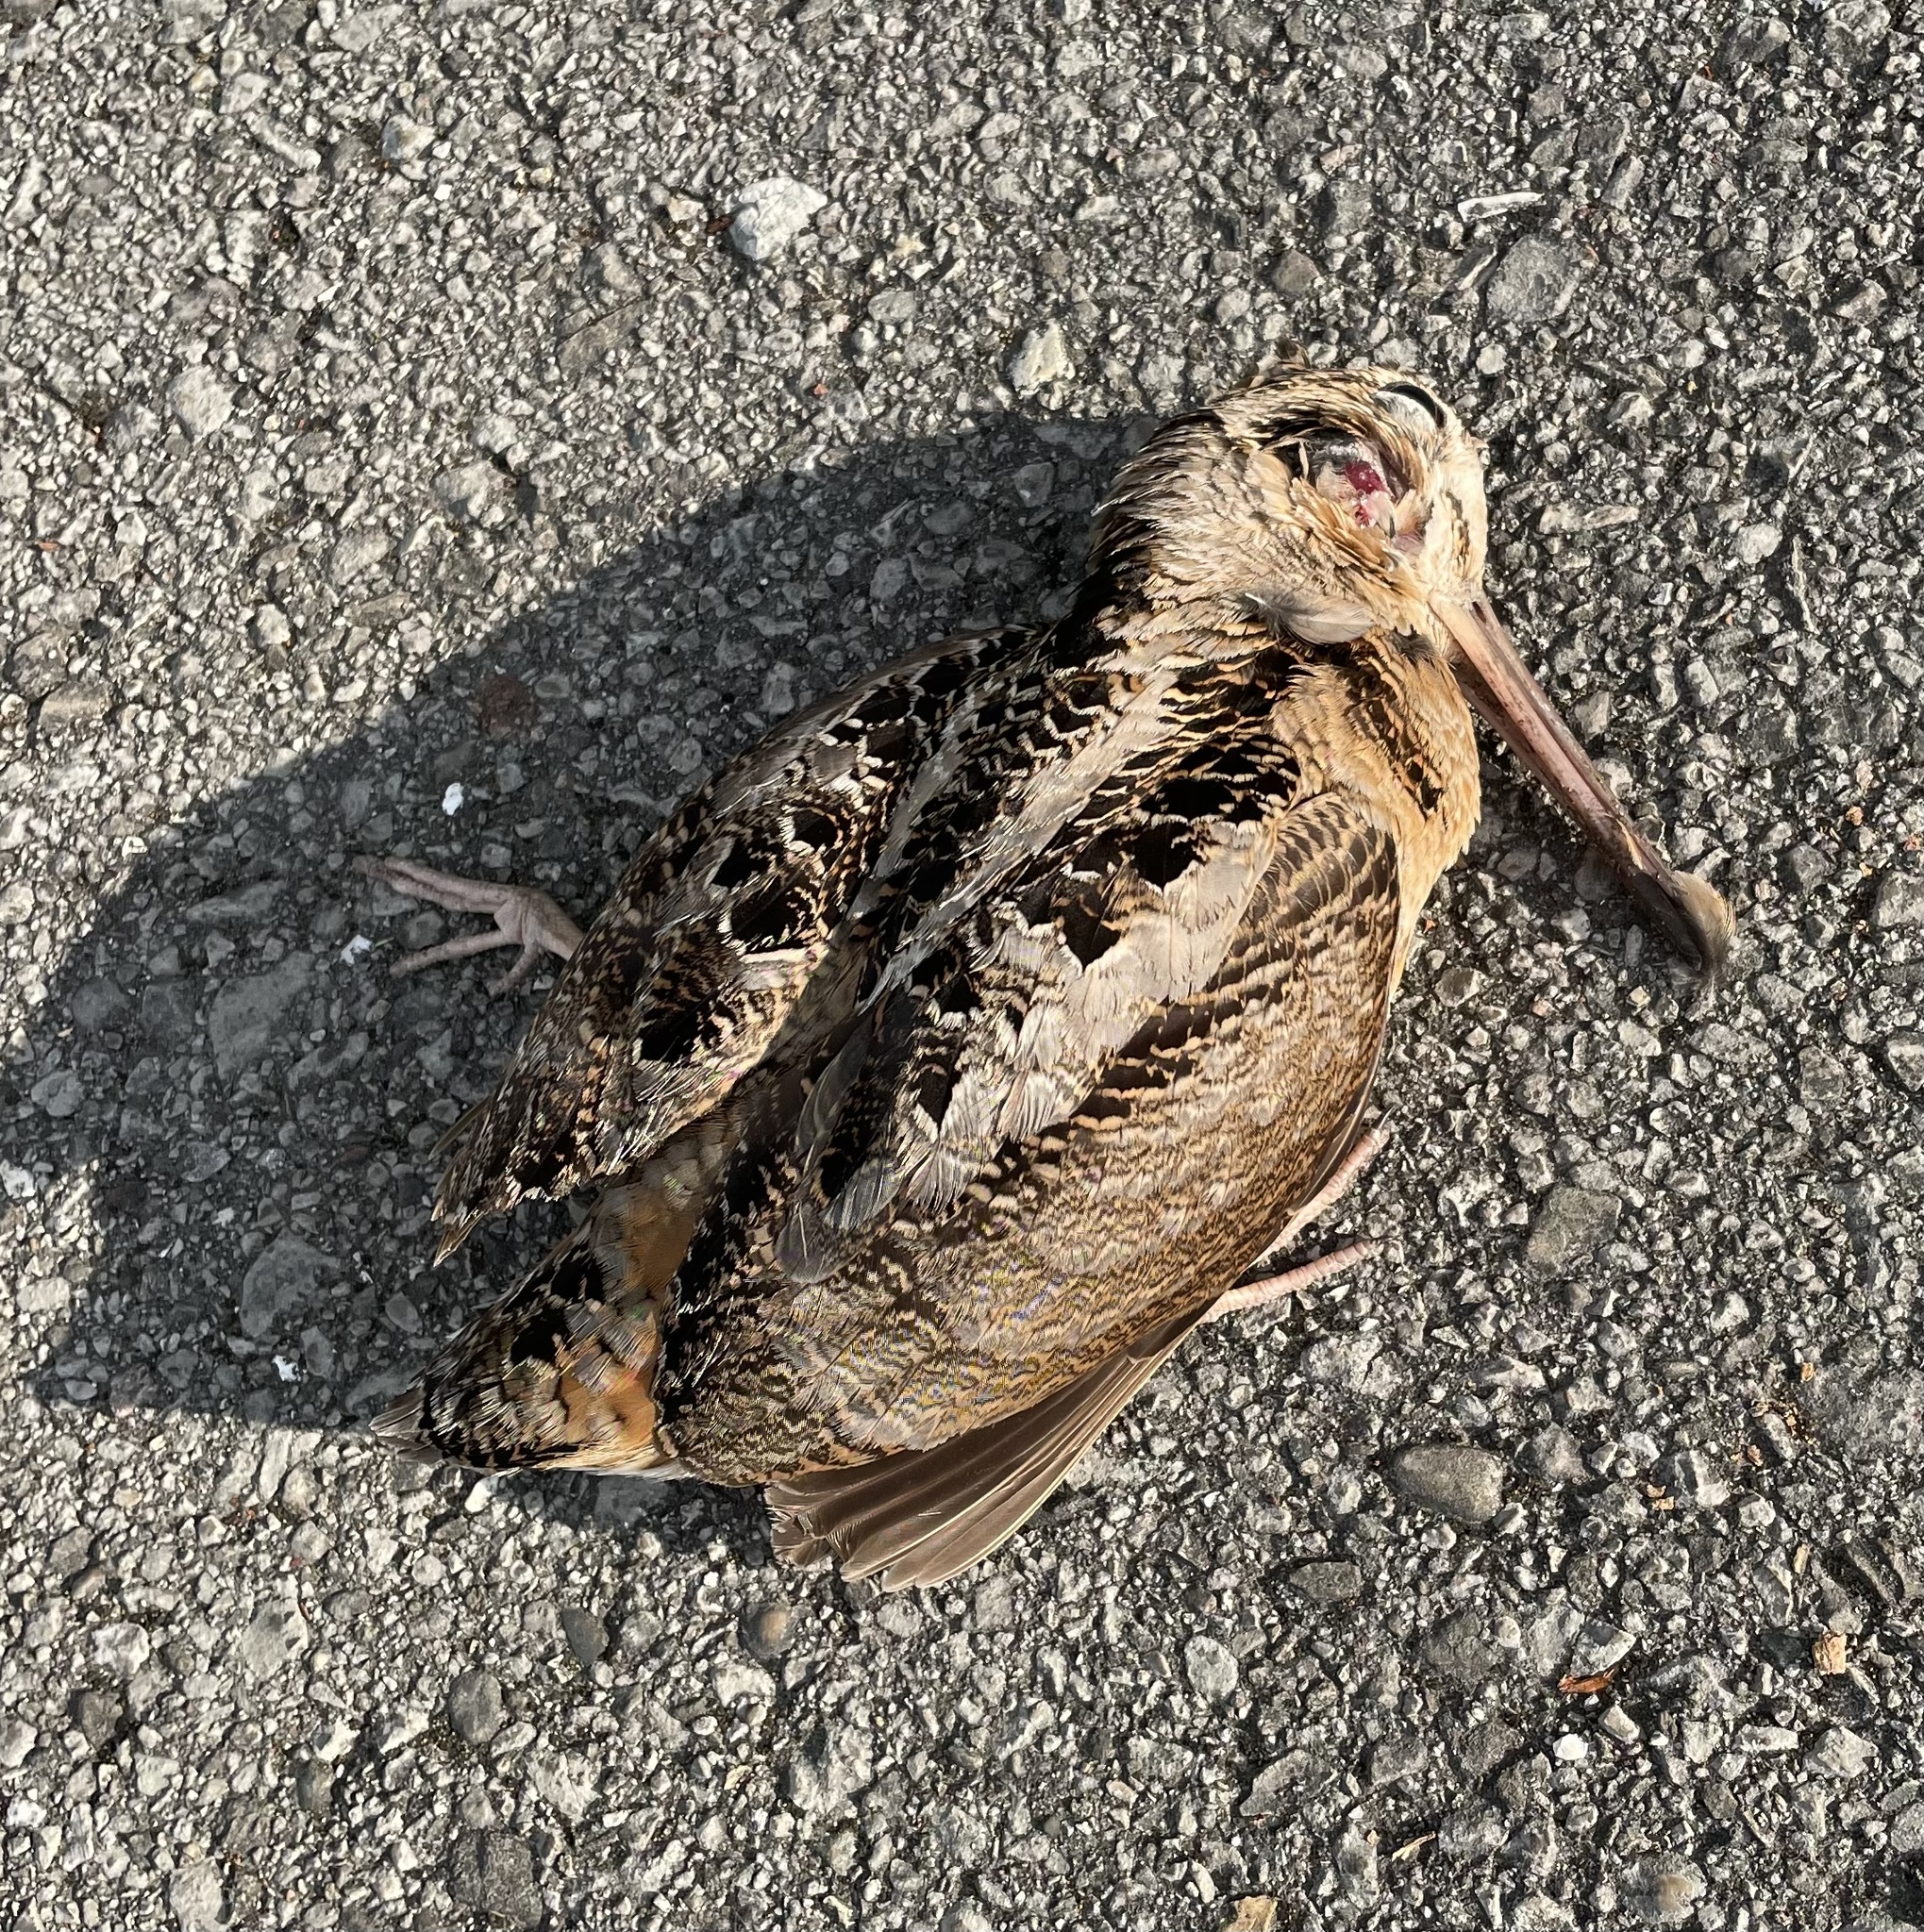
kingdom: Animalia
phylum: Chordata
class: Aves
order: Charadriiformes
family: Scolopacidae
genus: Scolopax
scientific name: Scolopax minor
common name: American woodcock
